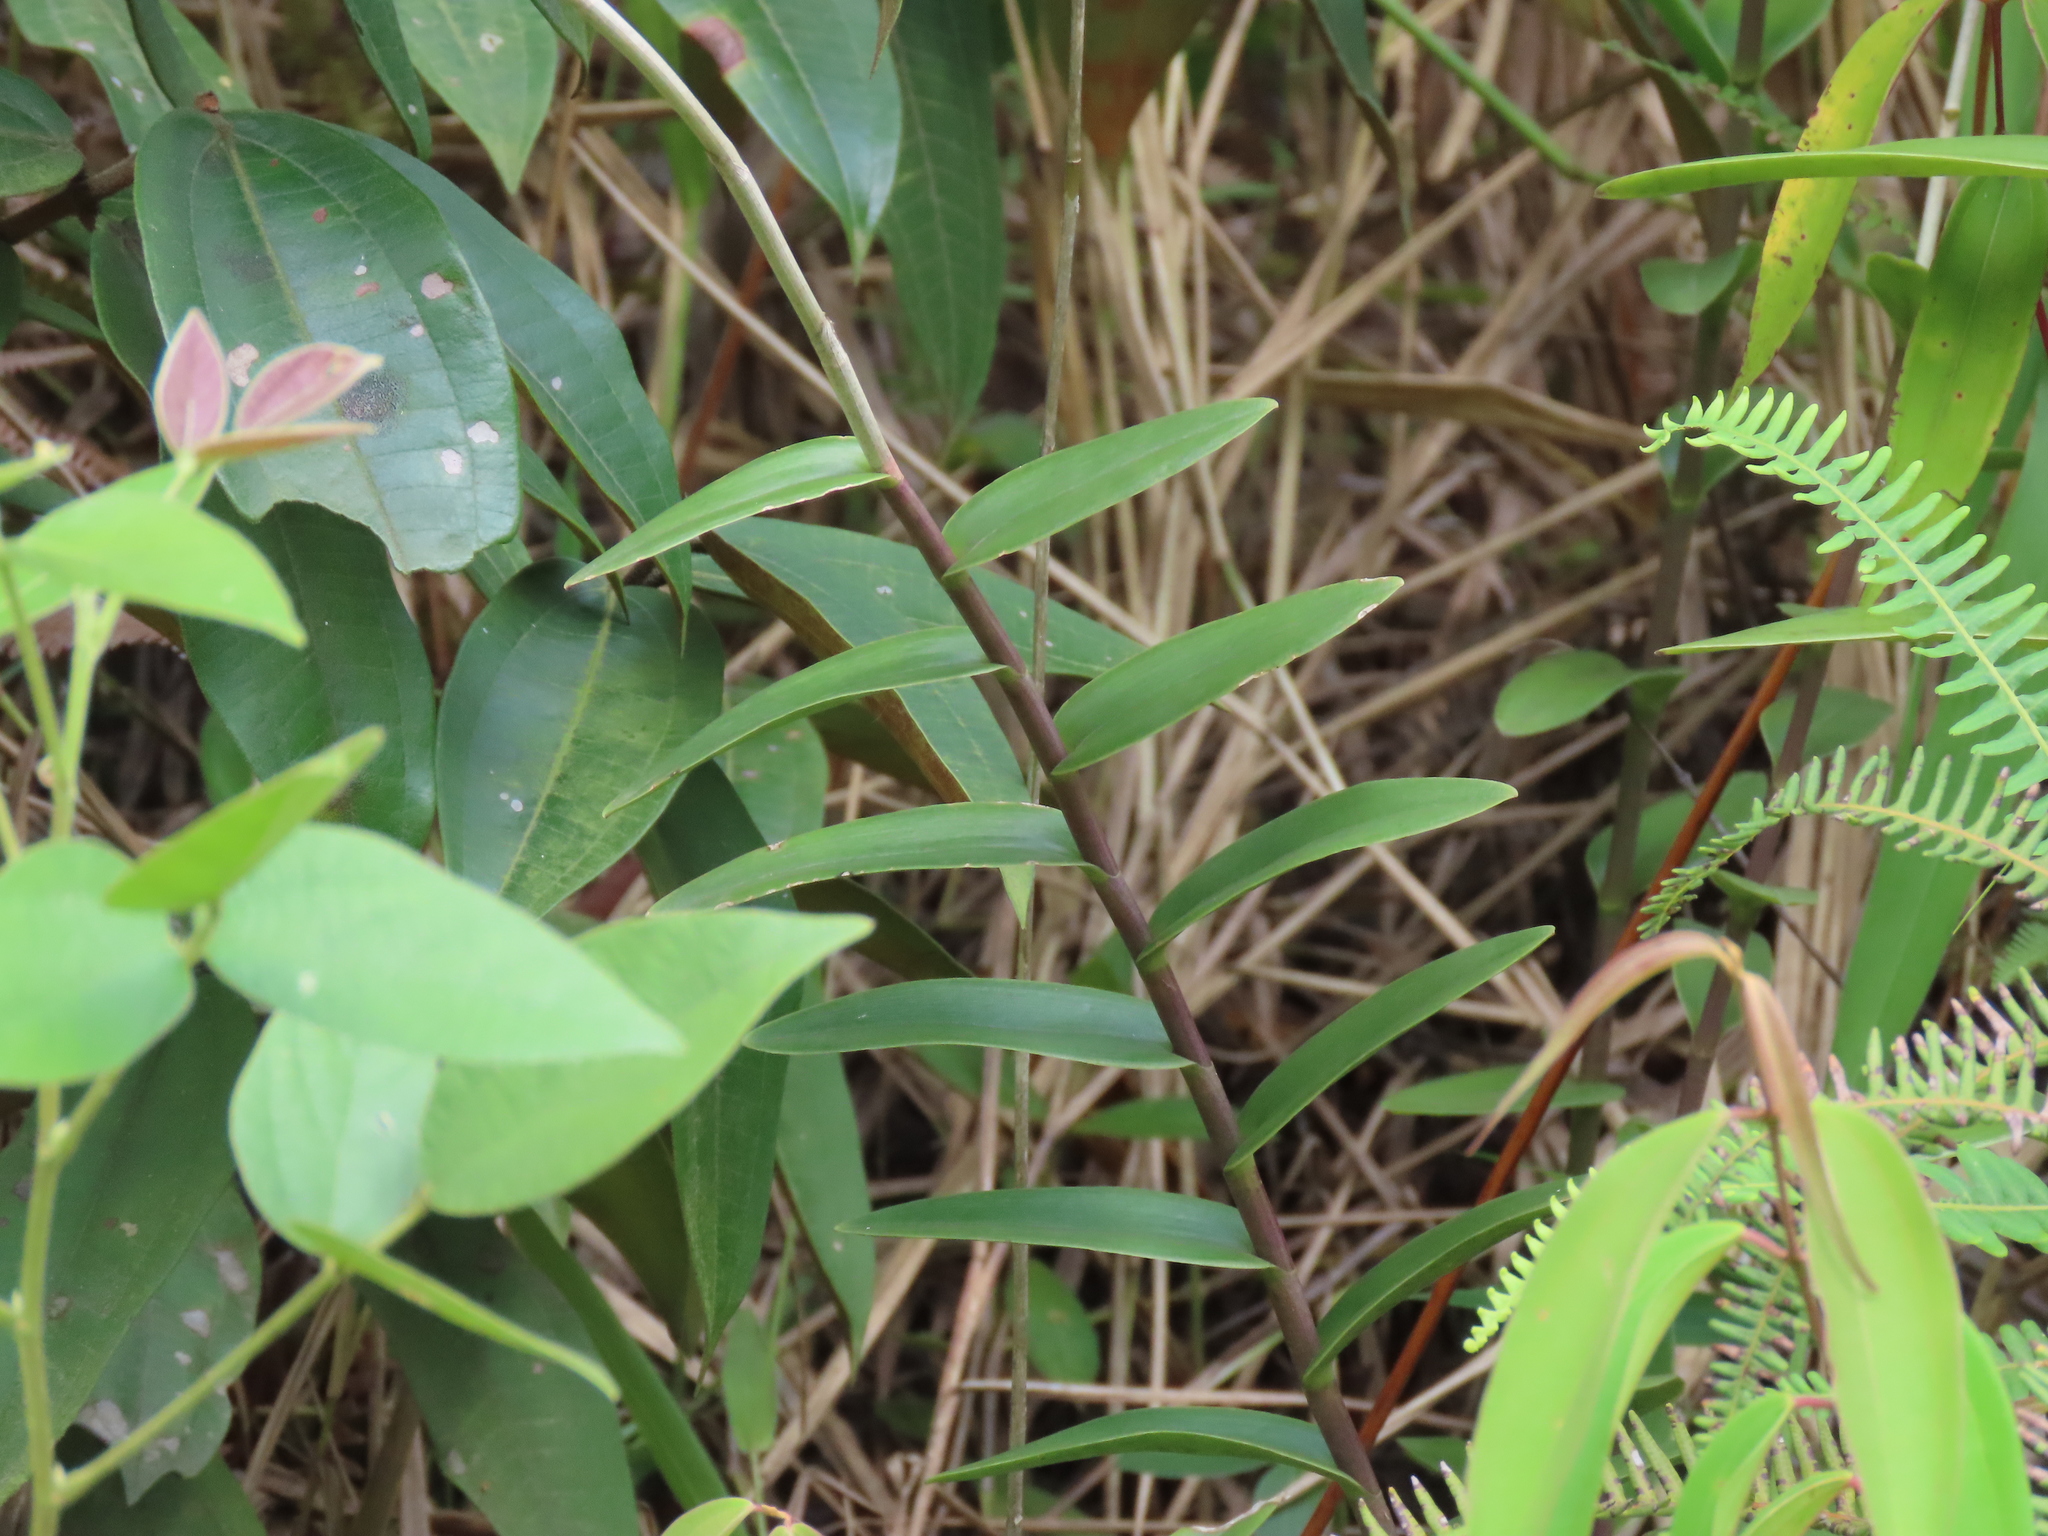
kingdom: Plantae
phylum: Tracheophyta
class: Liliopsida
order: Asparagales
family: Orchidaceae
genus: Epidendrum
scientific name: Epidendrum melinanthum
